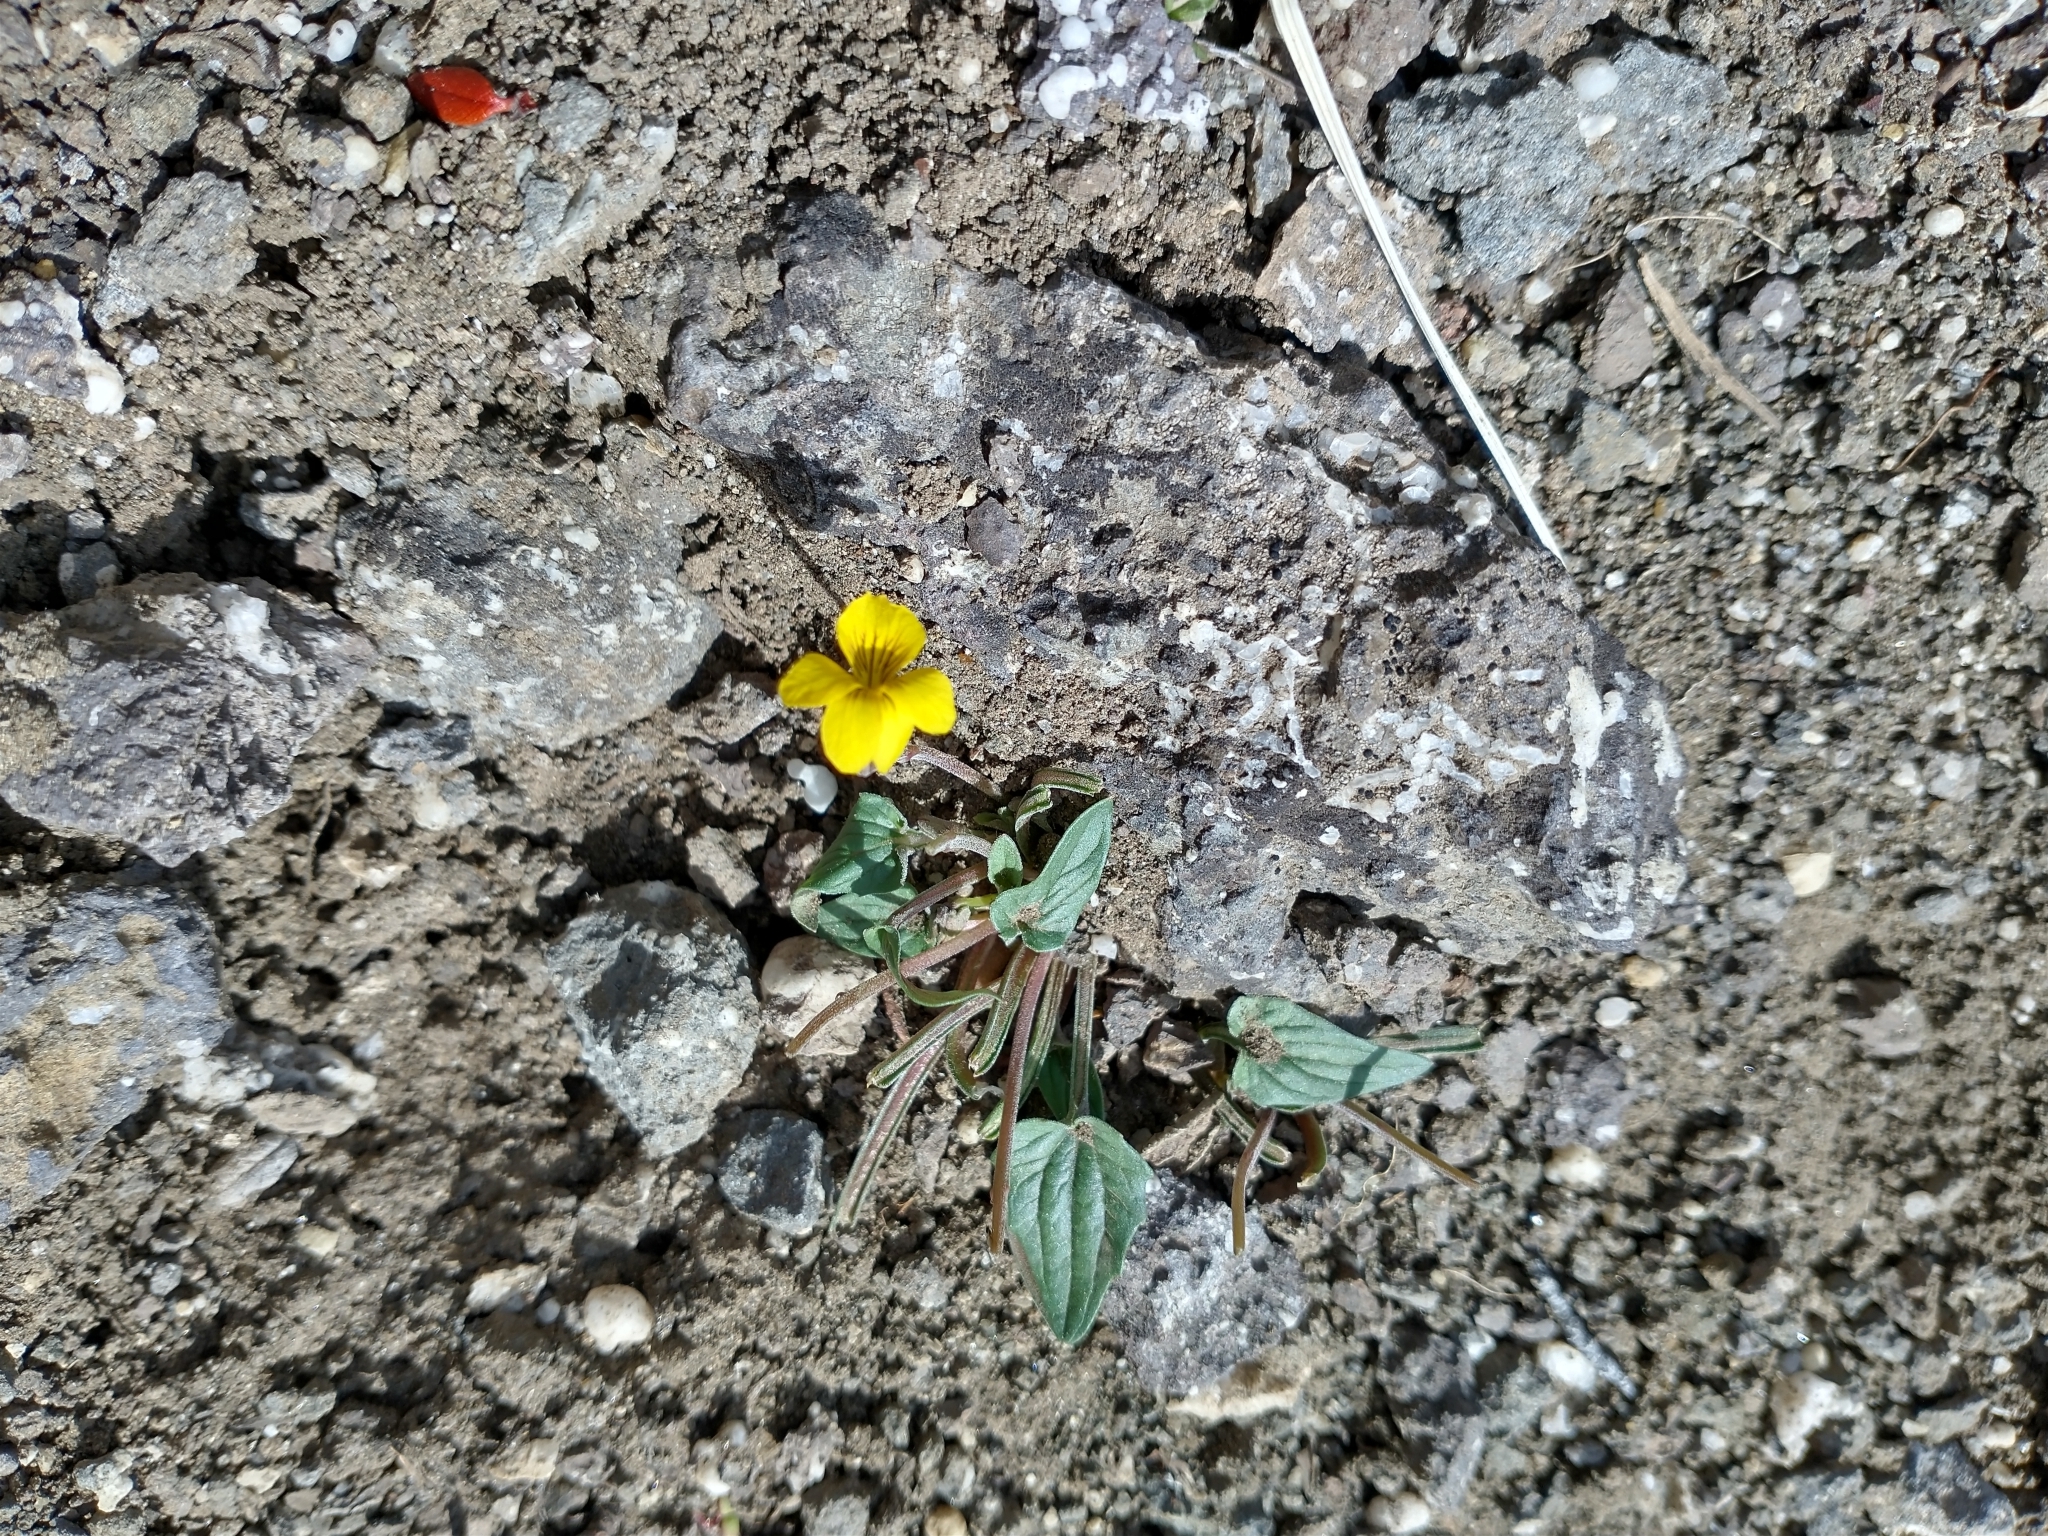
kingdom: Plantae
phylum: Tracheophyta
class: Magnoliopsida
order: Malpighiales
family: Violaceae
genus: Viola
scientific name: Viola purpurea
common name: Pine violet
